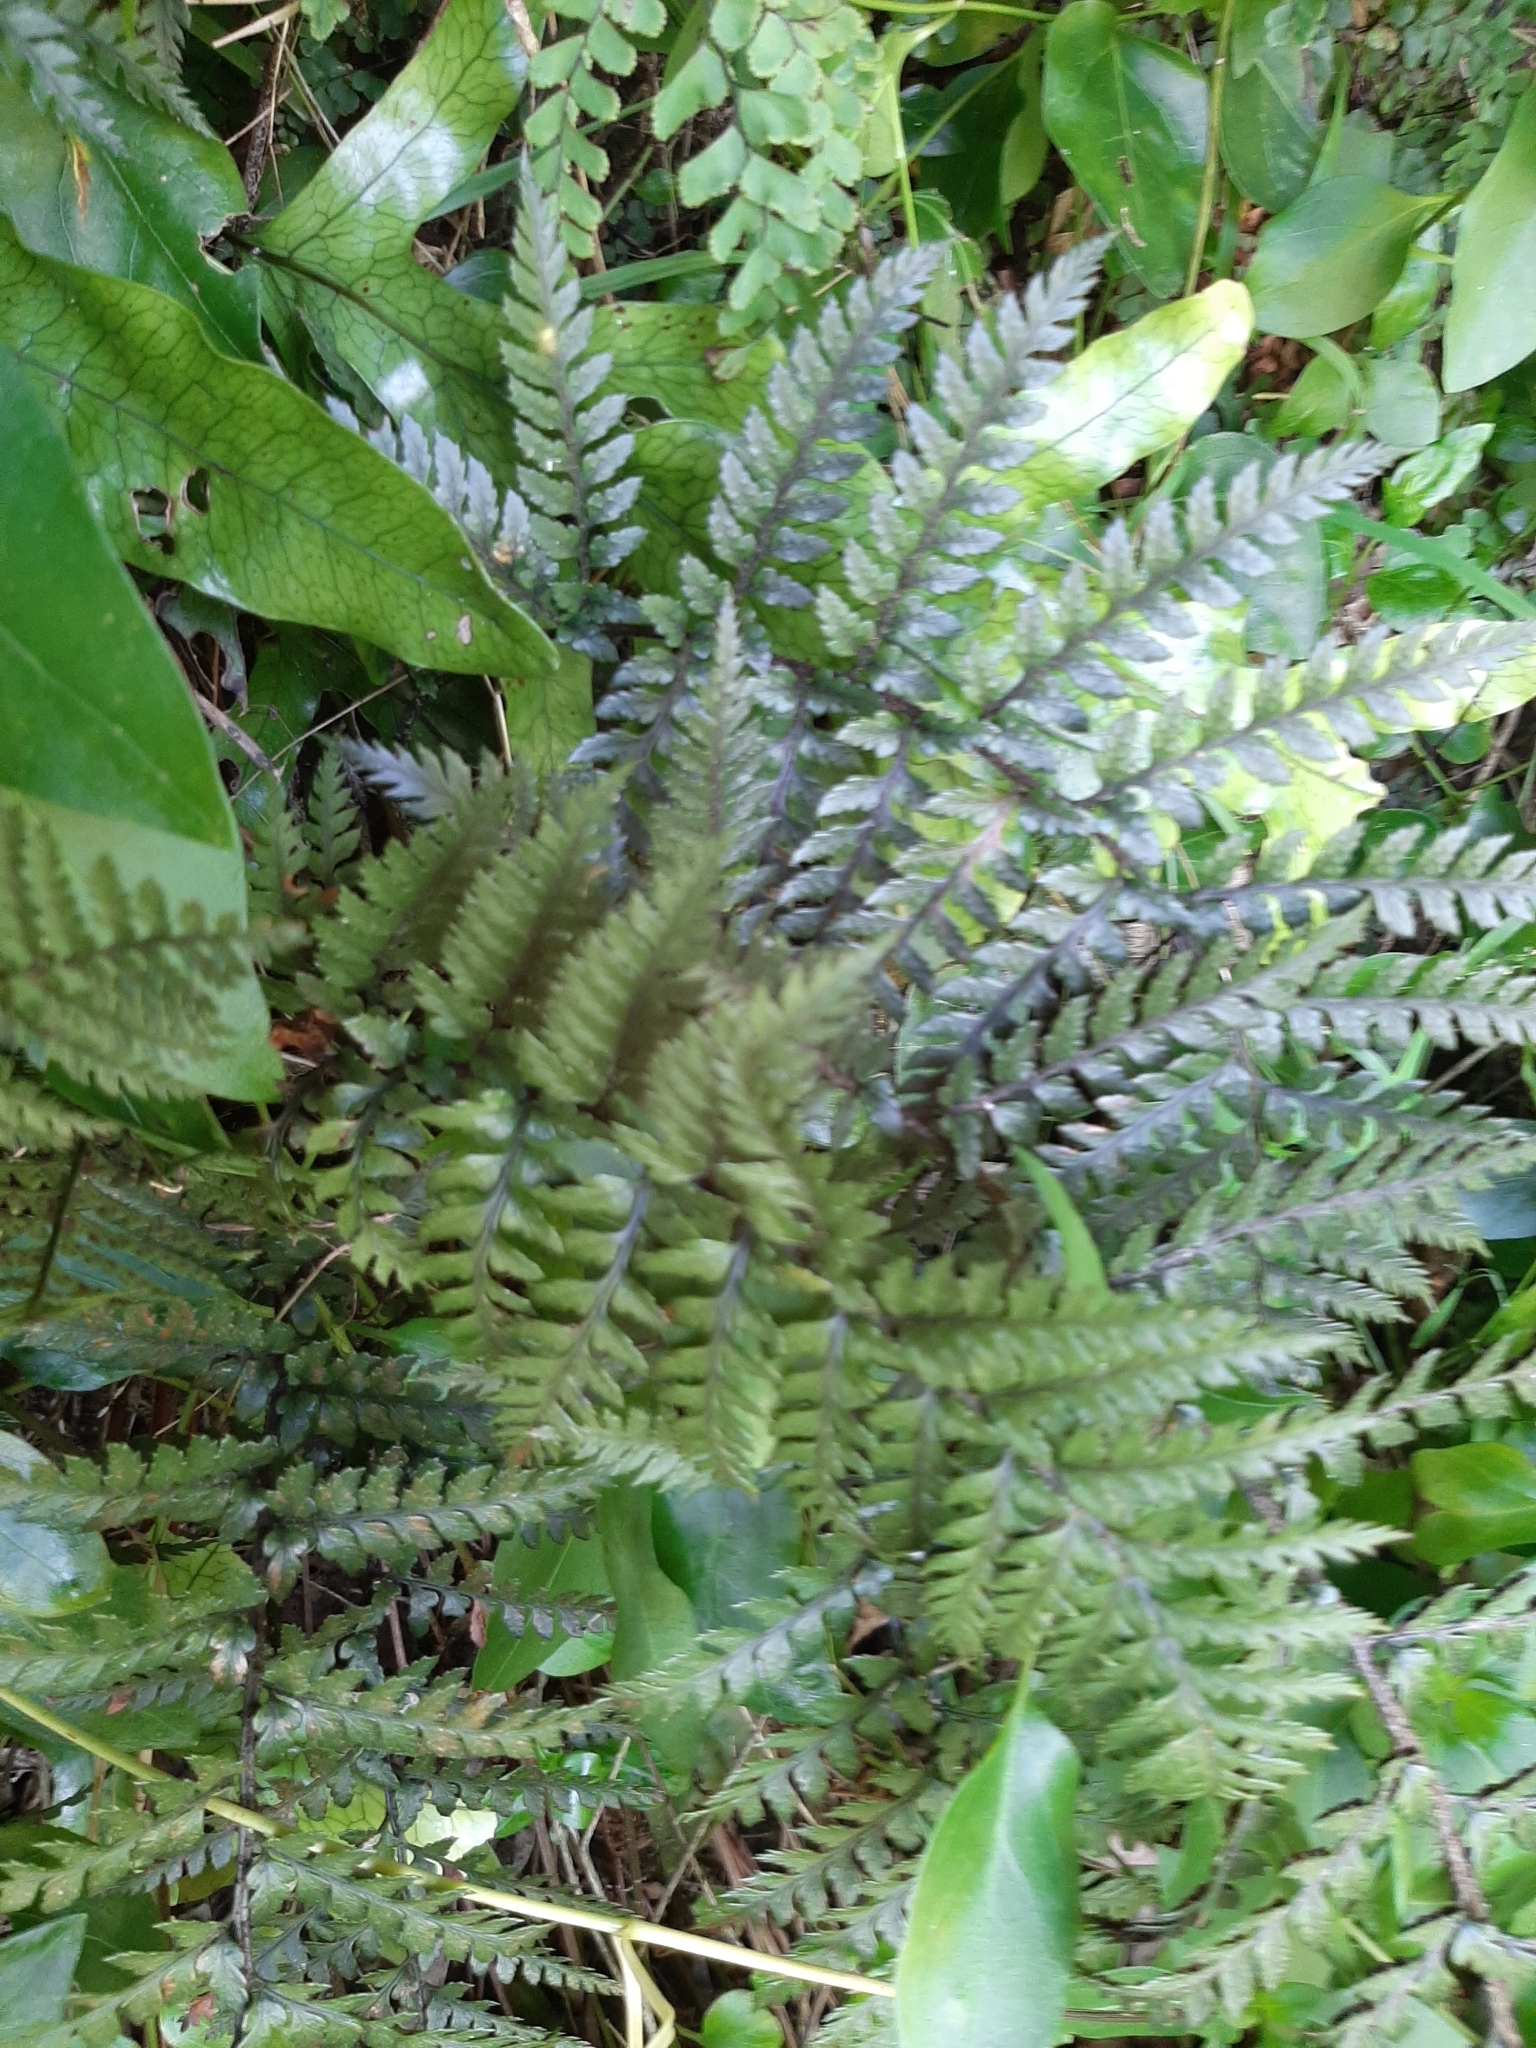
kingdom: Plantae
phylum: Tracheophyta
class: Polypodiopsida
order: Polypodiales
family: Dryopteridaceae
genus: Polystichum
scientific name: Polystichum neozelandicum
